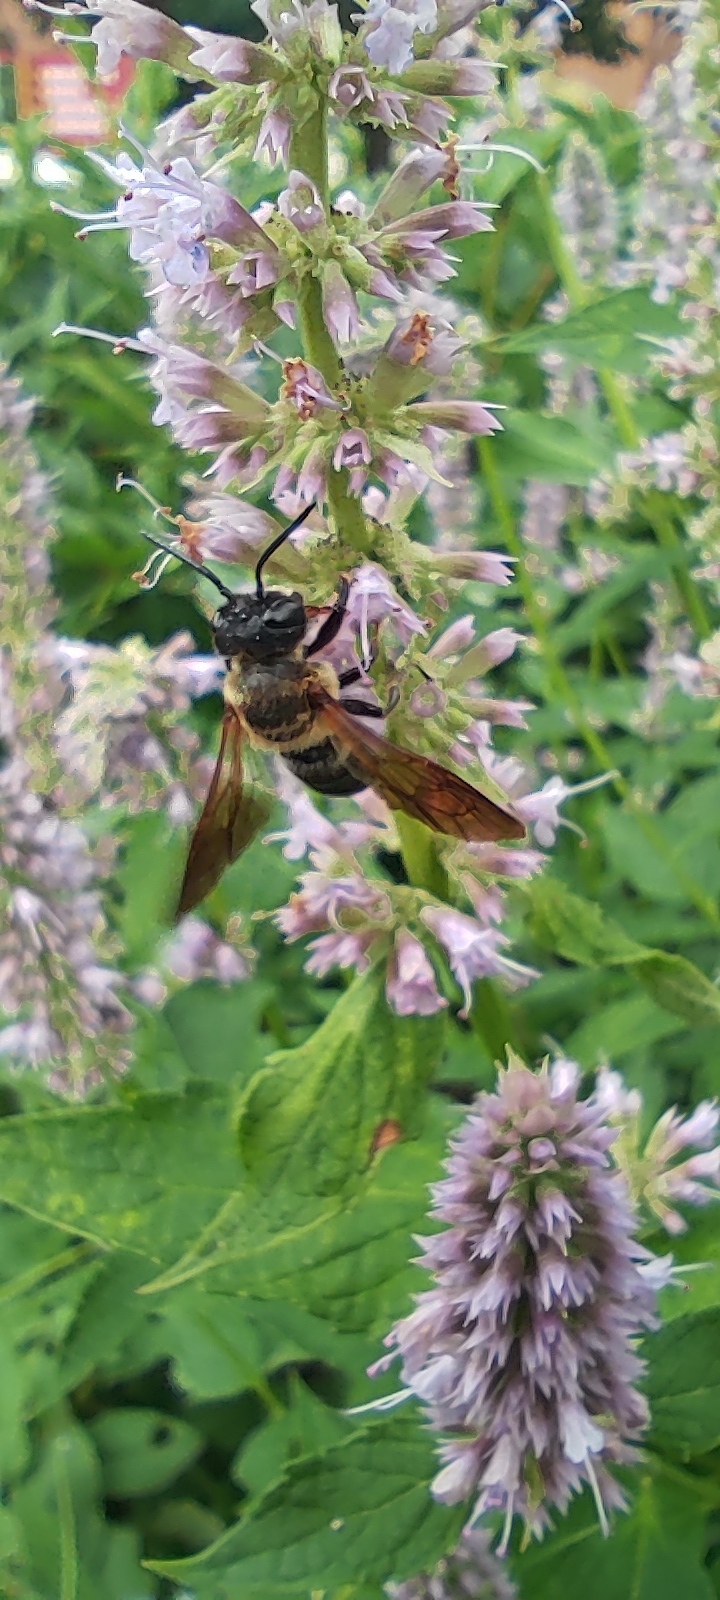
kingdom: Animalia
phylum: Arthropoda
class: Insecta
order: Hymenoptera
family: Megachilidae
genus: Megachile
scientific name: Megachile sculpturalis
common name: Sculptured resin bee
